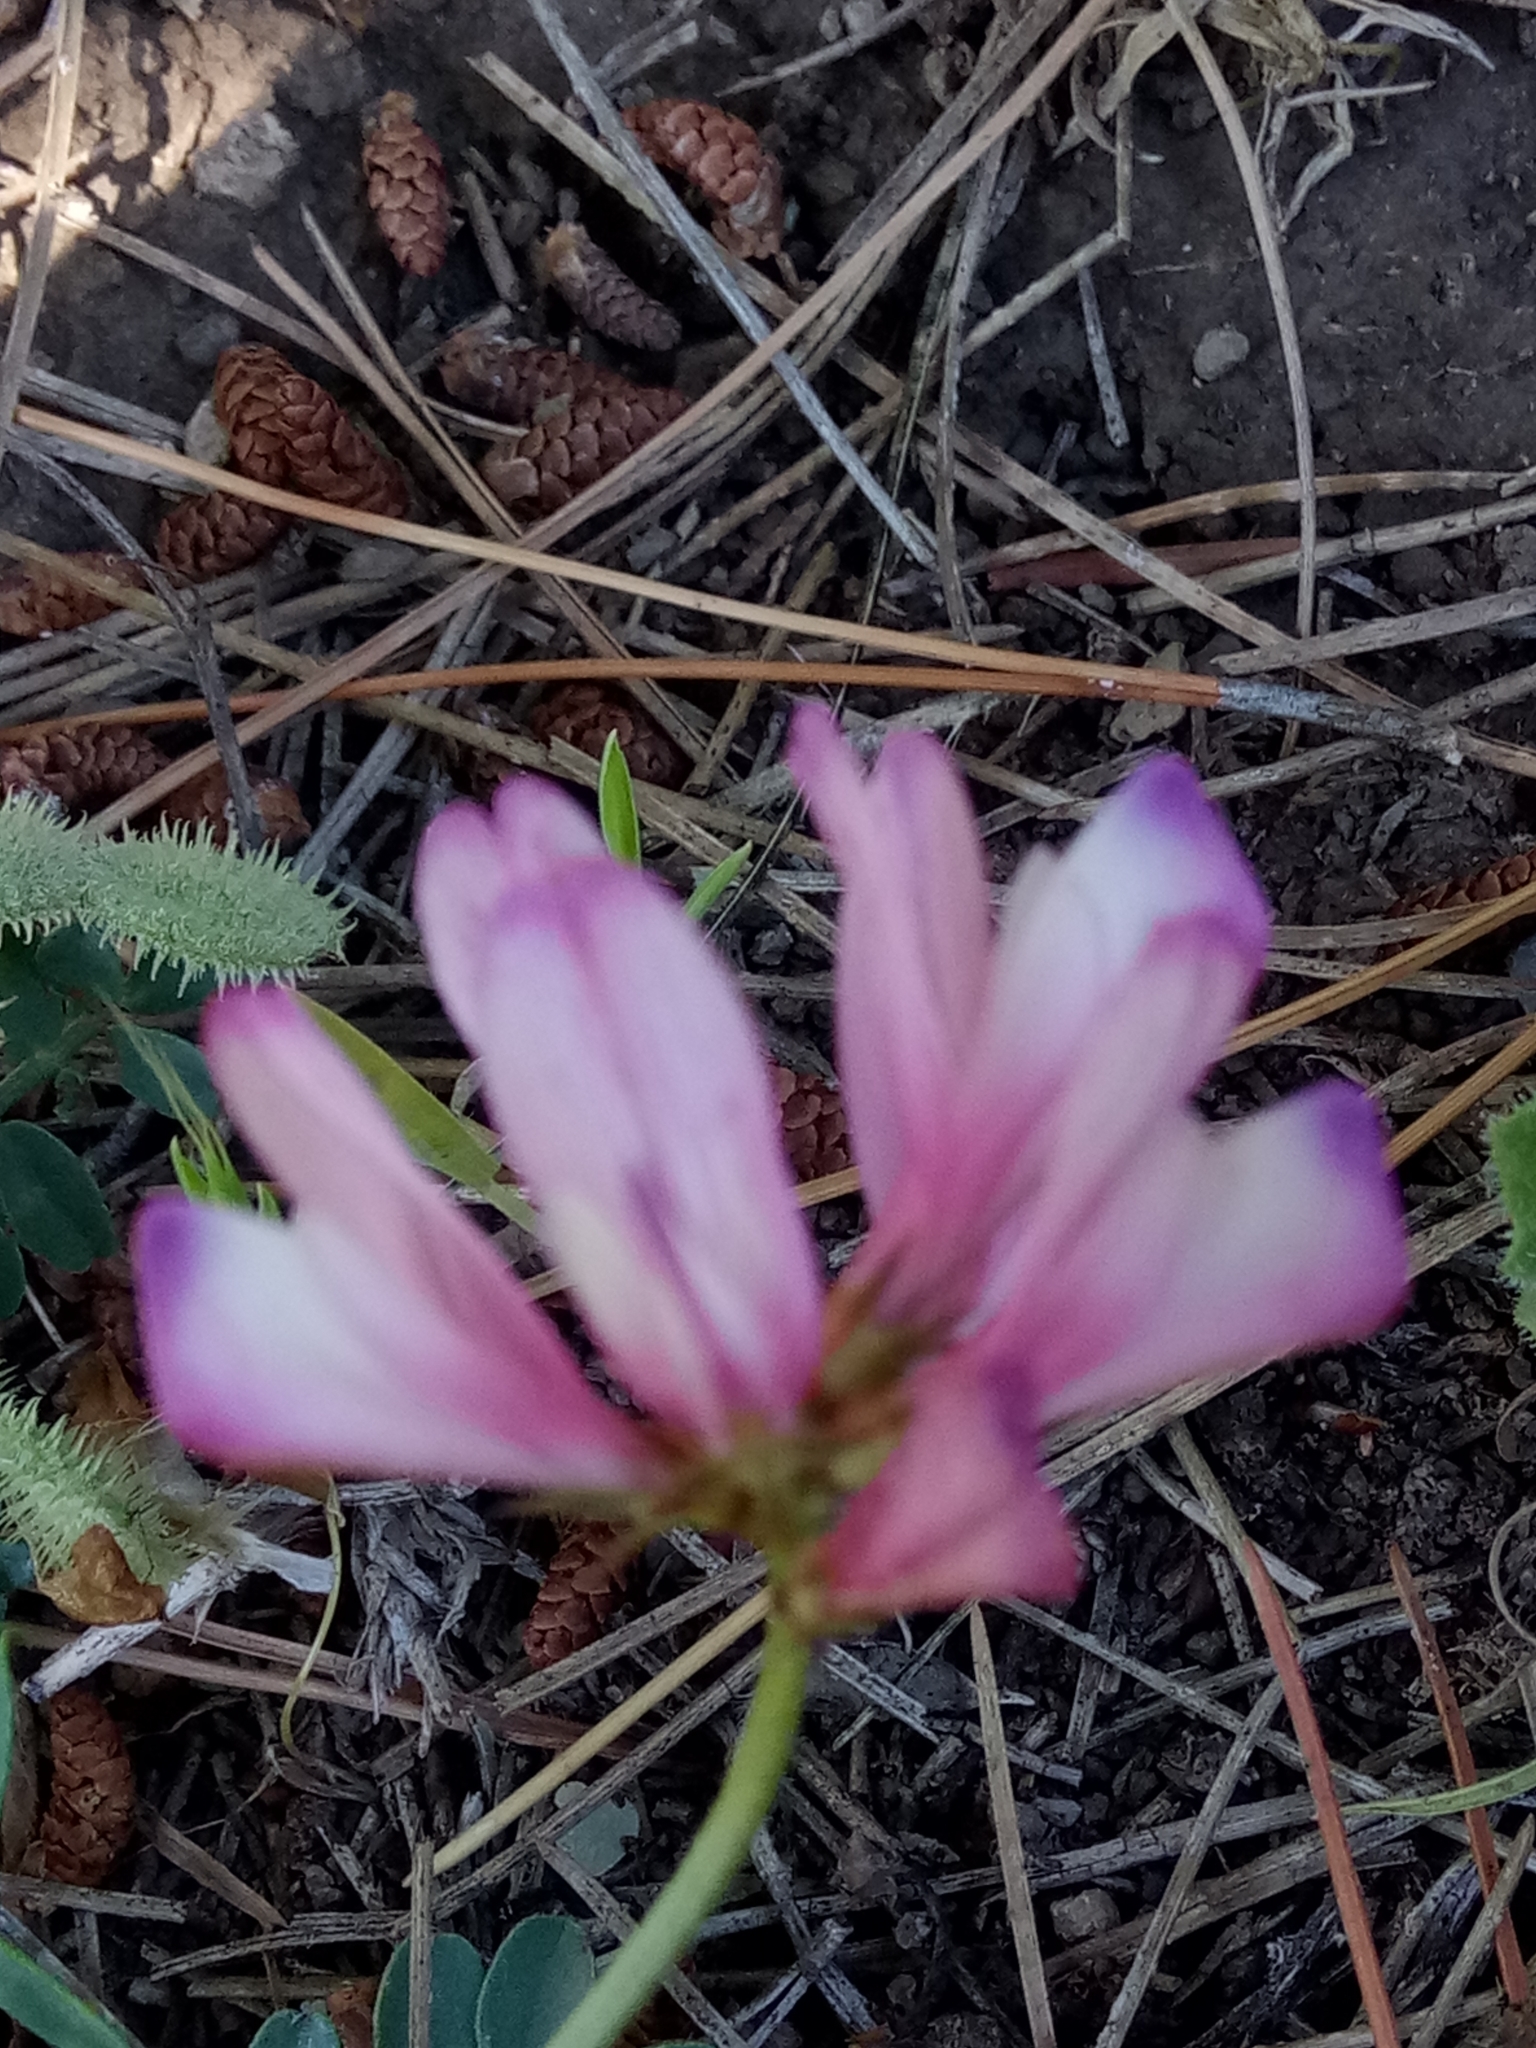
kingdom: Plantae
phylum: Tracheophyta
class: Magnoliopsida
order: Fabales
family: Fabaceae
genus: Sulla
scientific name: Sulla glomerata
